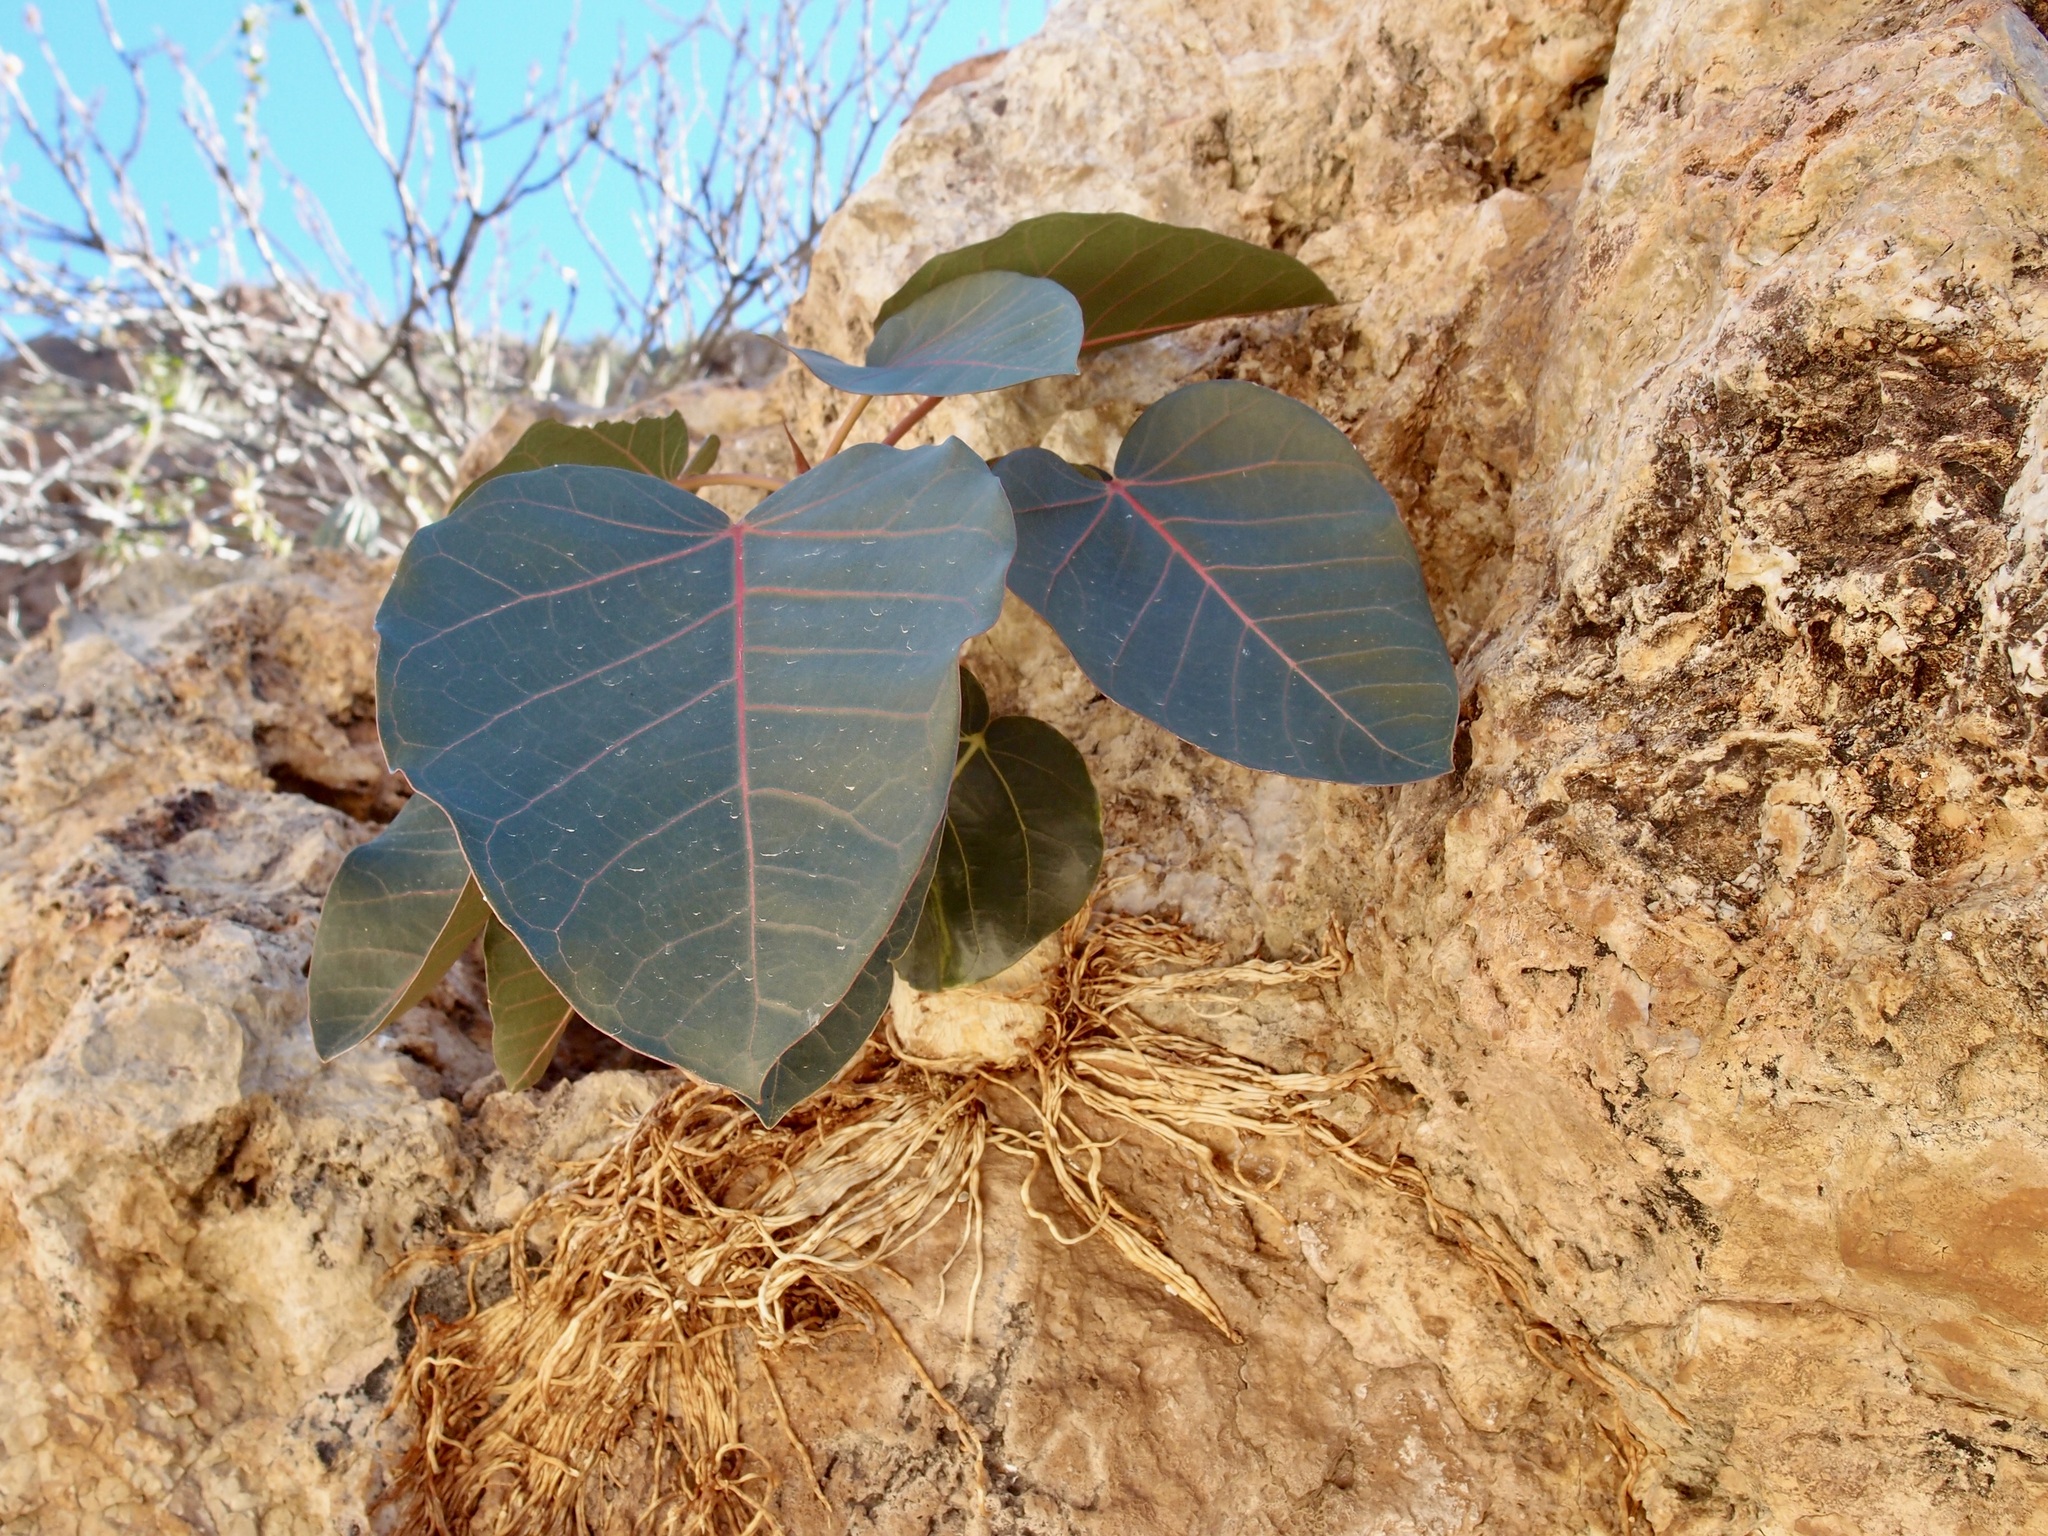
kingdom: Plantae
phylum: Tracheophyta
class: Magnoliopsida
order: Rosales
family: Moraceae
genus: Ficus
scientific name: Ficus petiolaris
